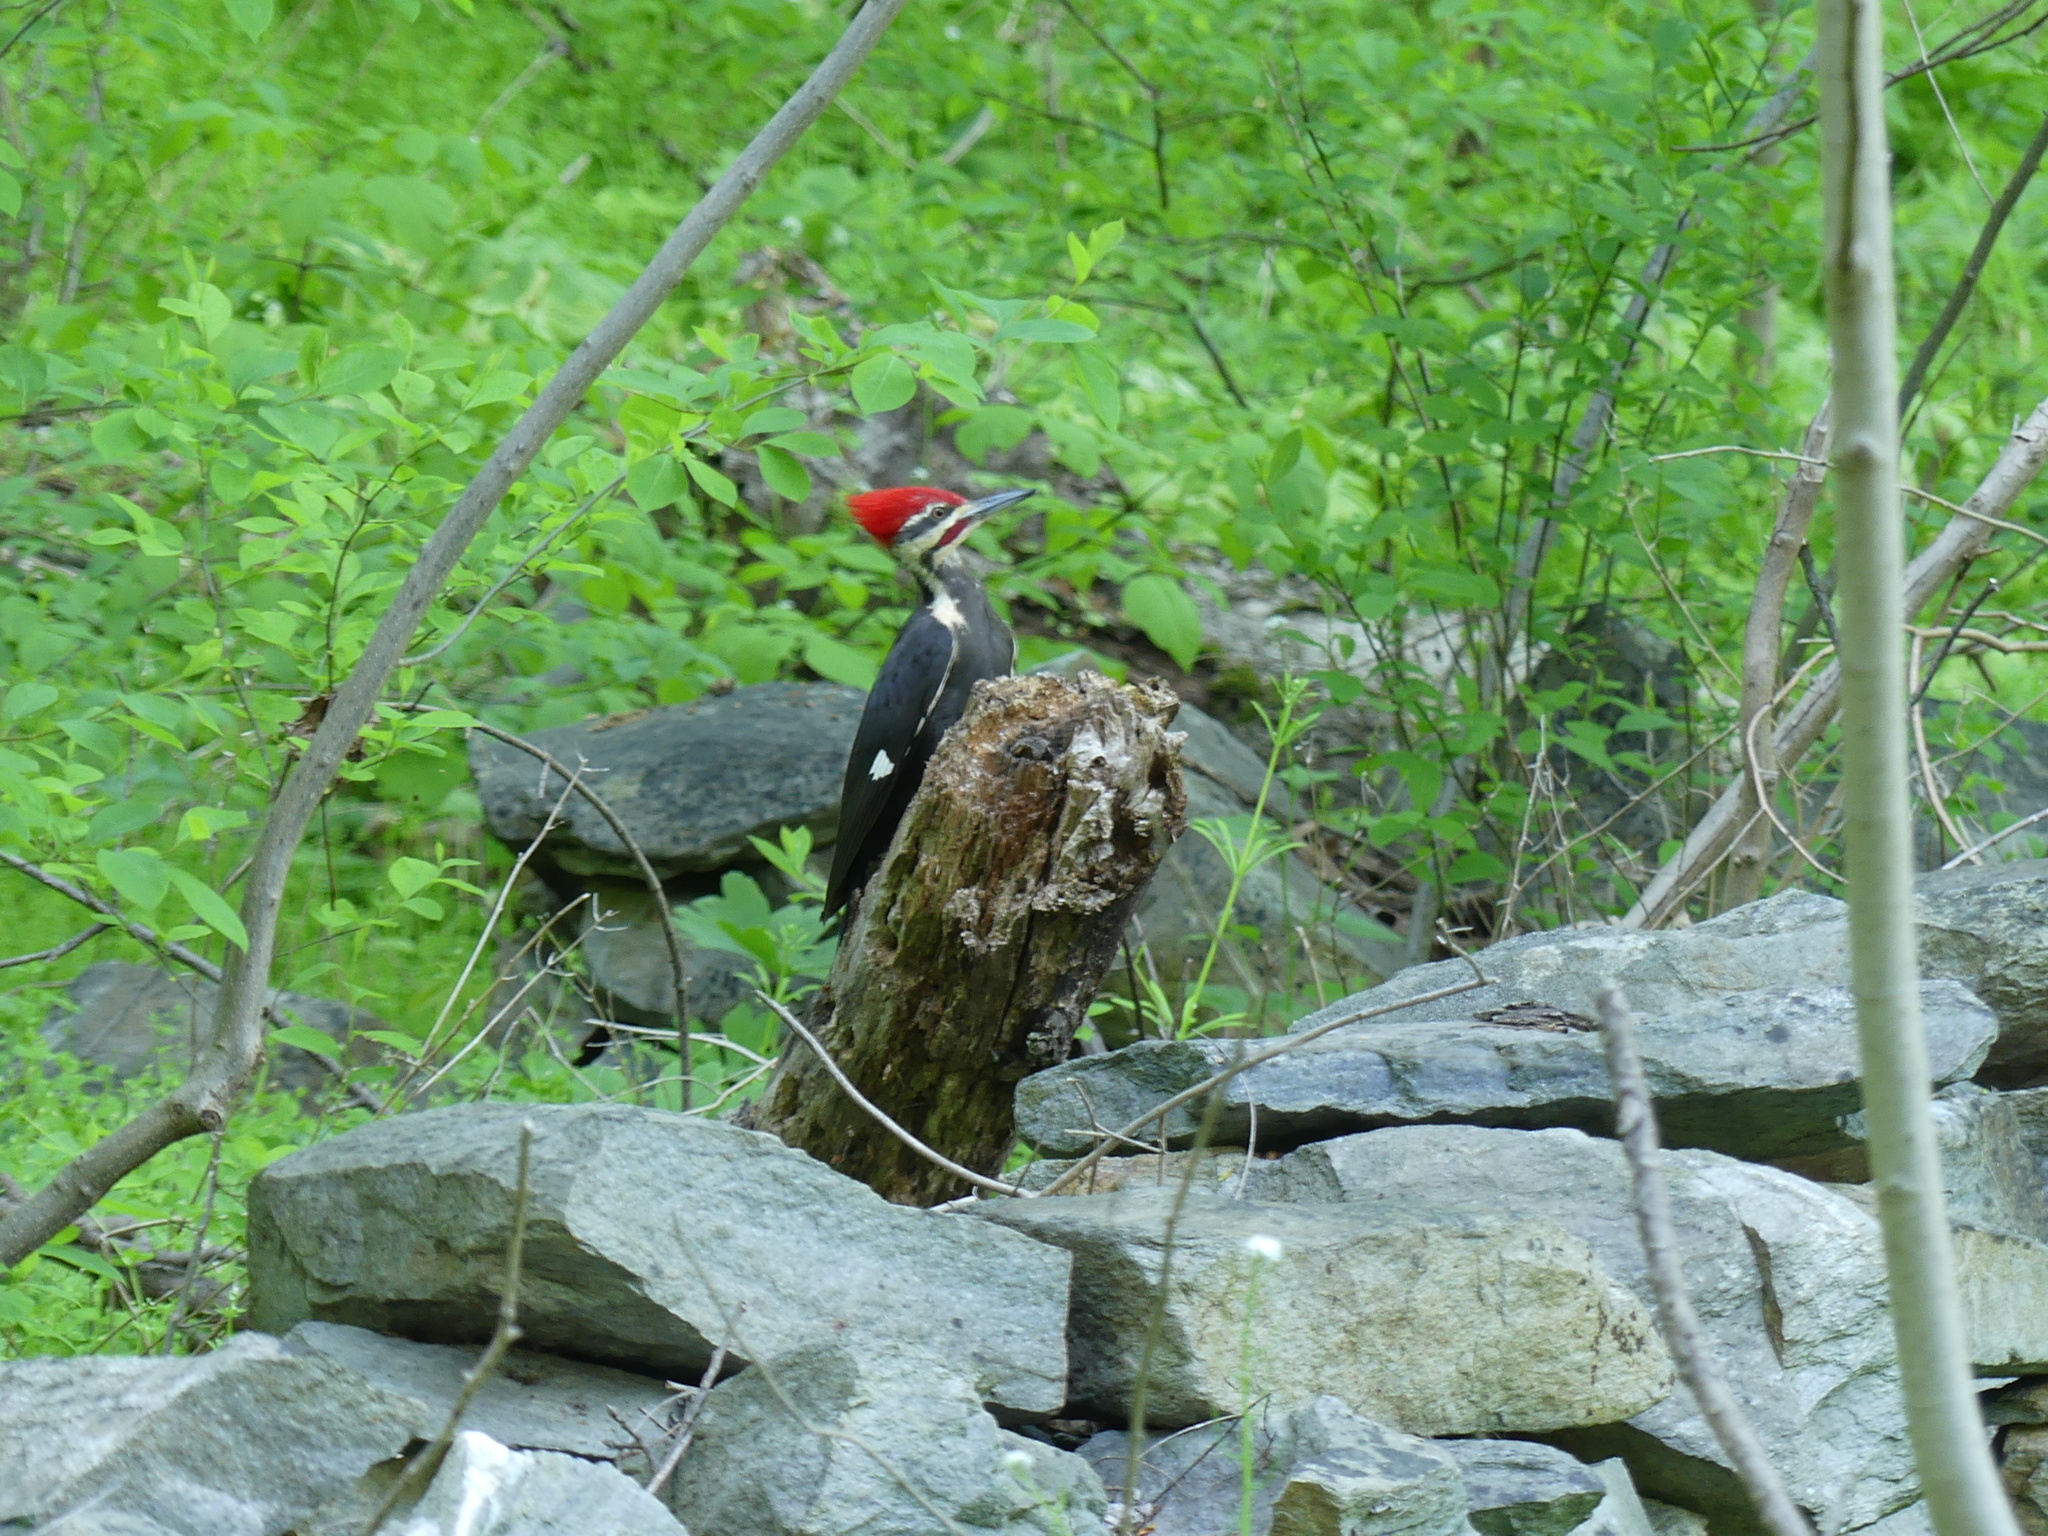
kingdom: Animalia
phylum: Chordata
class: Aves
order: Piciformes
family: Picidae
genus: Dryocopus
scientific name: Dryocopus pileatus
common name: Pileated woodpecker
